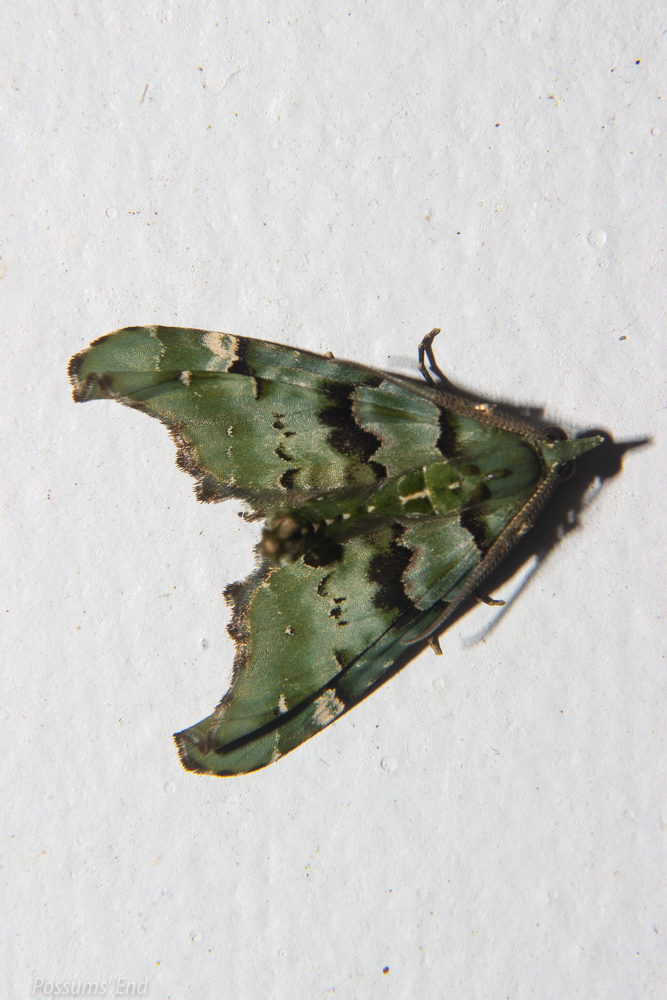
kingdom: Animalia
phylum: Arthropoda
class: Insecta
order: Lepidoptera
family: Geometridae
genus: Elvia
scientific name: Elvia glaucata
